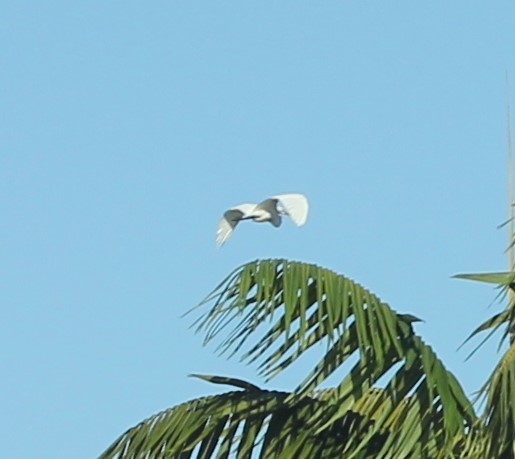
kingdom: Animalia
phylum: Chordata
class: Aves
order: Pelecaniformes
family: Ardeidae
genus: Ardea
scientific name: Ardea alba
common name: Great egret
